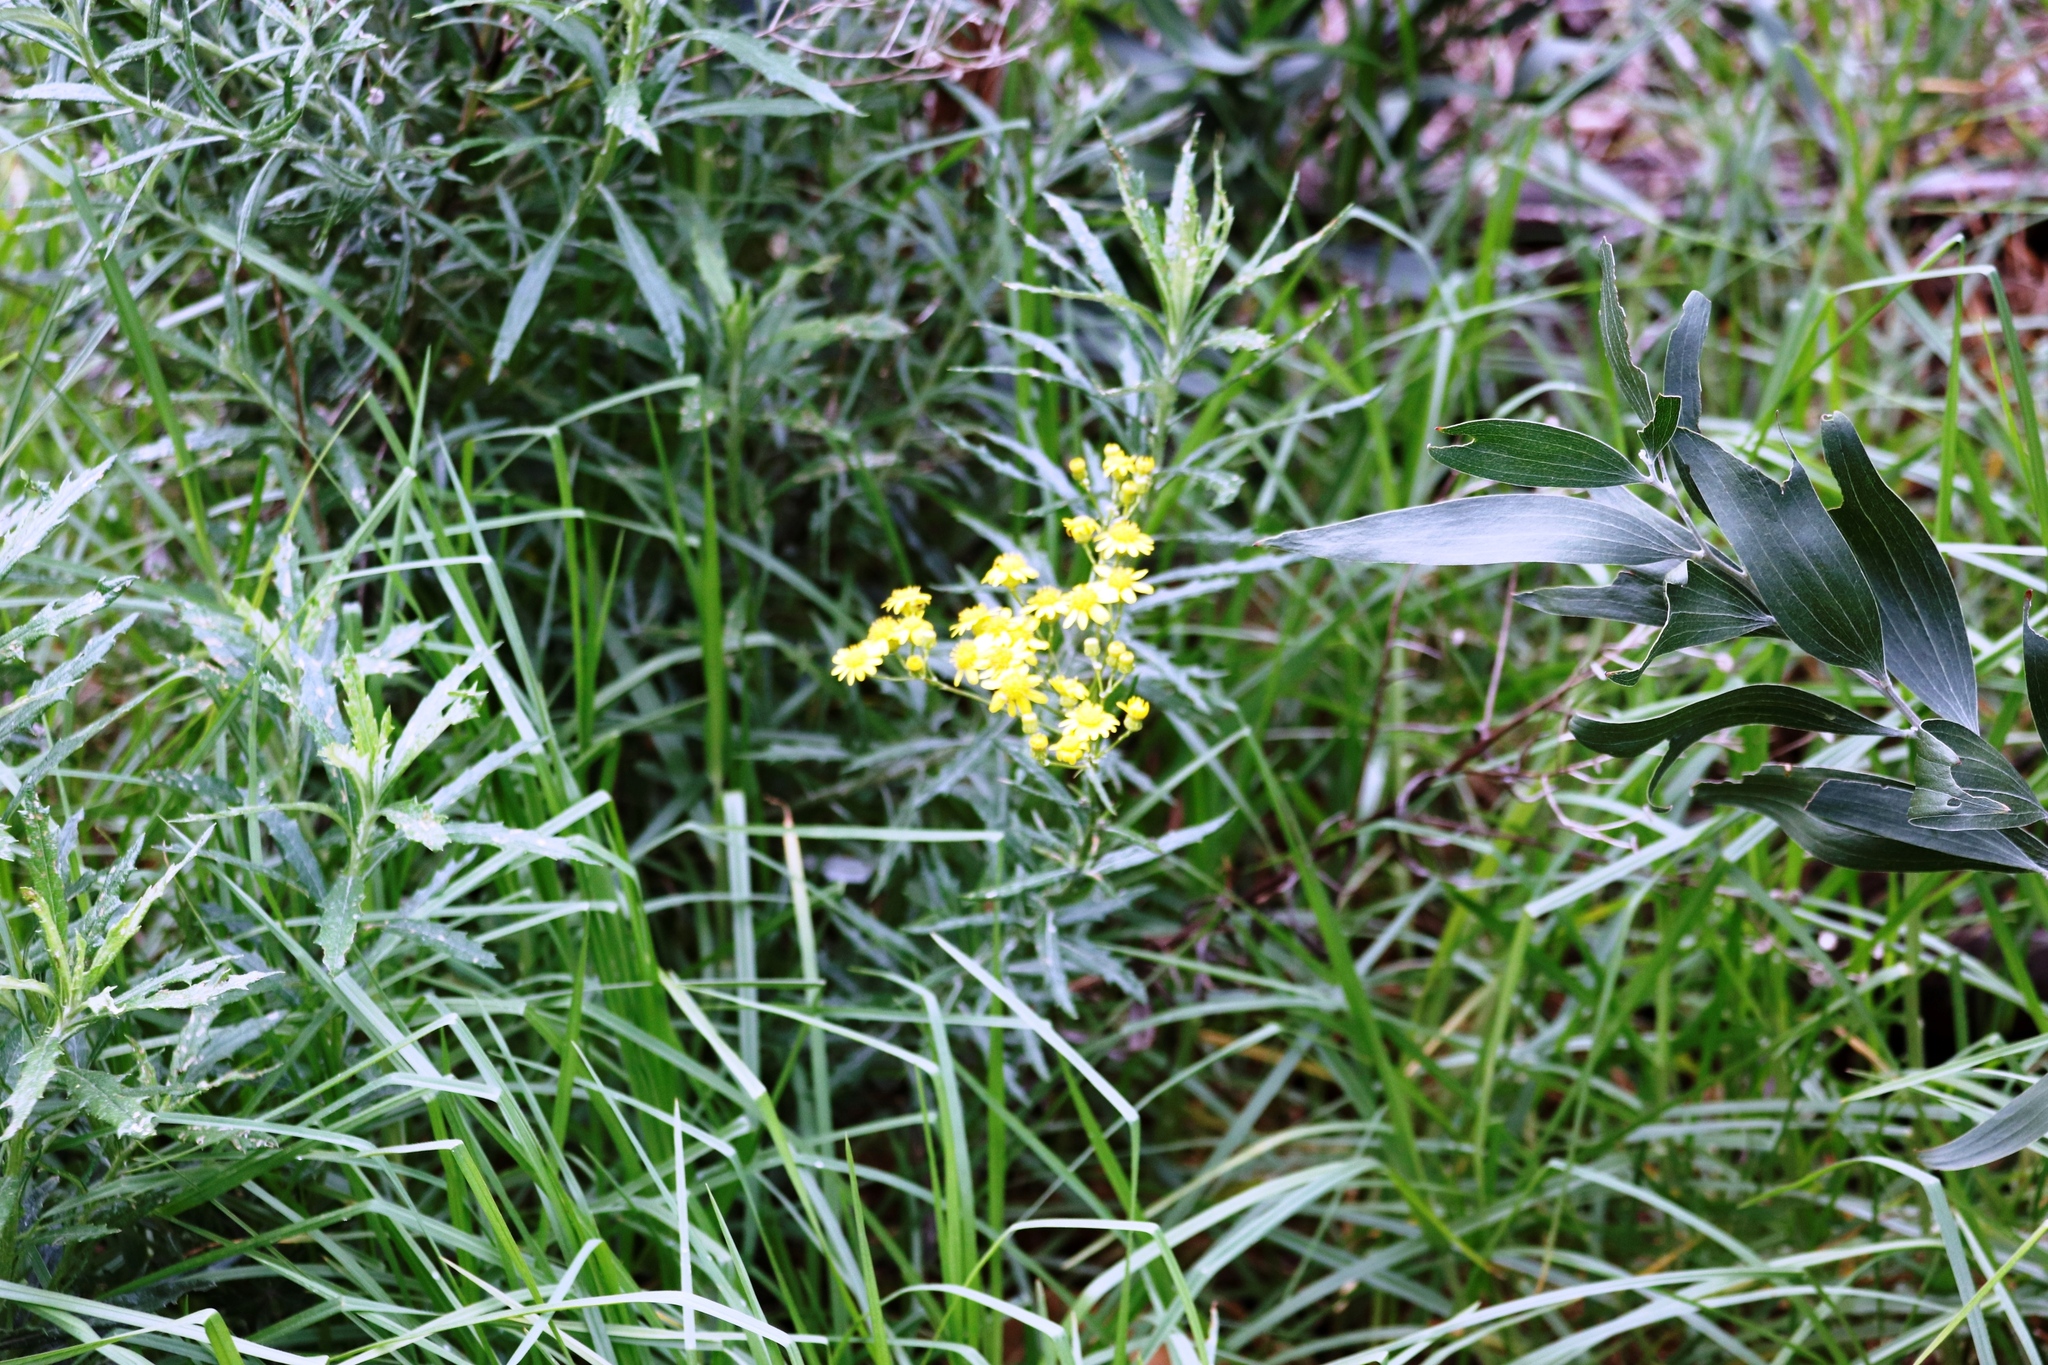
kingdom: Plantae
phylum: Tracheophyta
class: Magnoliopsida
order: Asterales
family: Asteraceae
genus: Senecio
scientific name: Senecio pterophorus
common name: Shoddy ragwort
